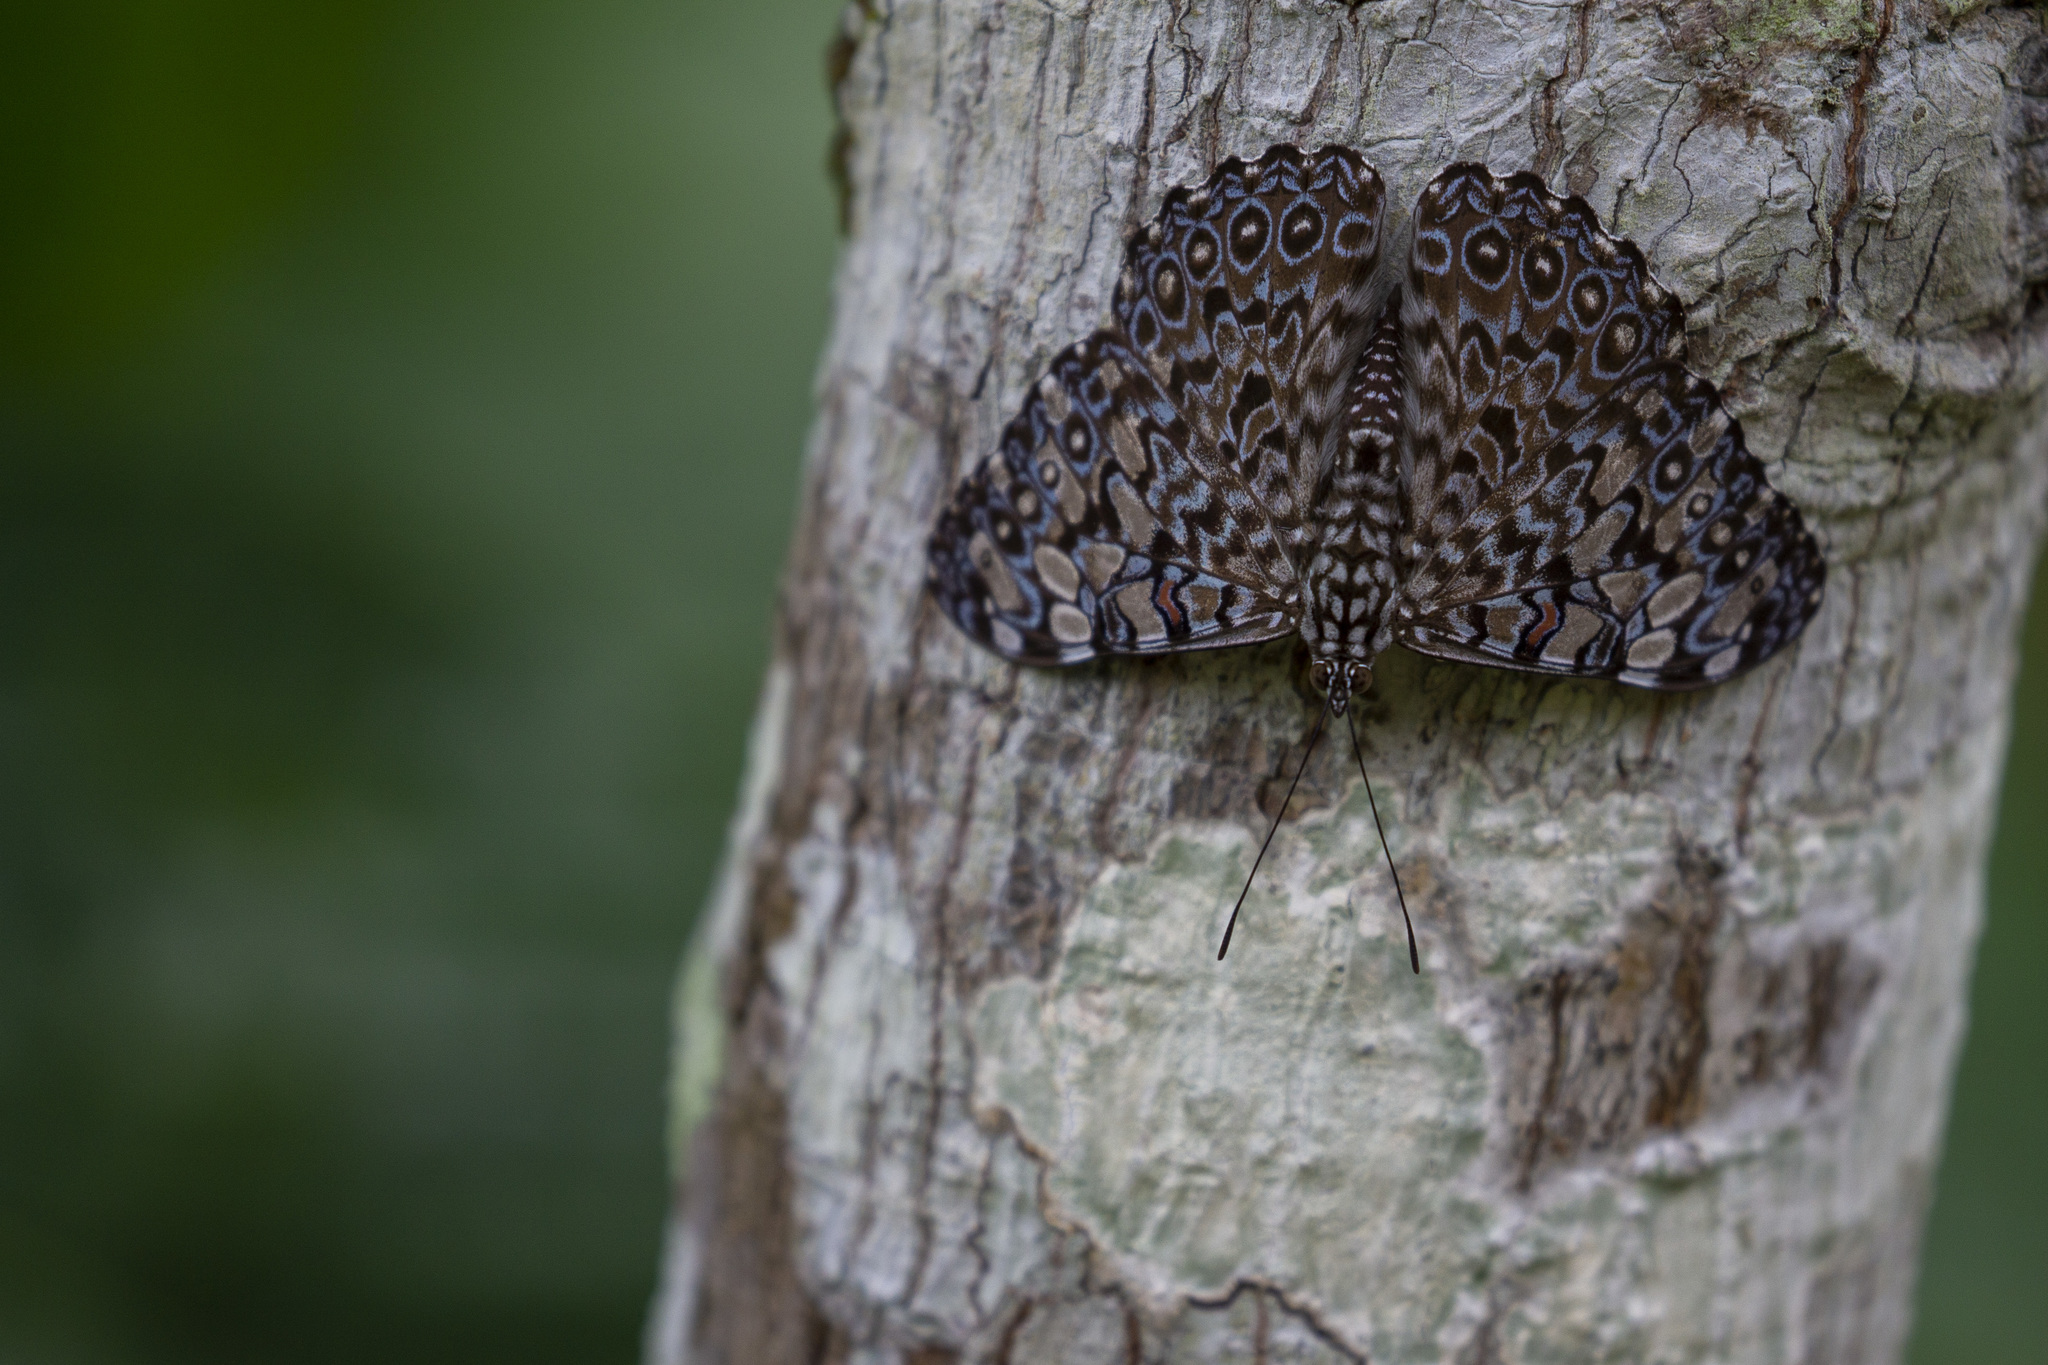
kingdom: Animalia
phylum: Arthropoda
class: Insecta
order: Lepidoptera
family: Nymphalidae
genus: Hamadryas
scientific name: Hamadryas feronia
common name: Variable cracker
